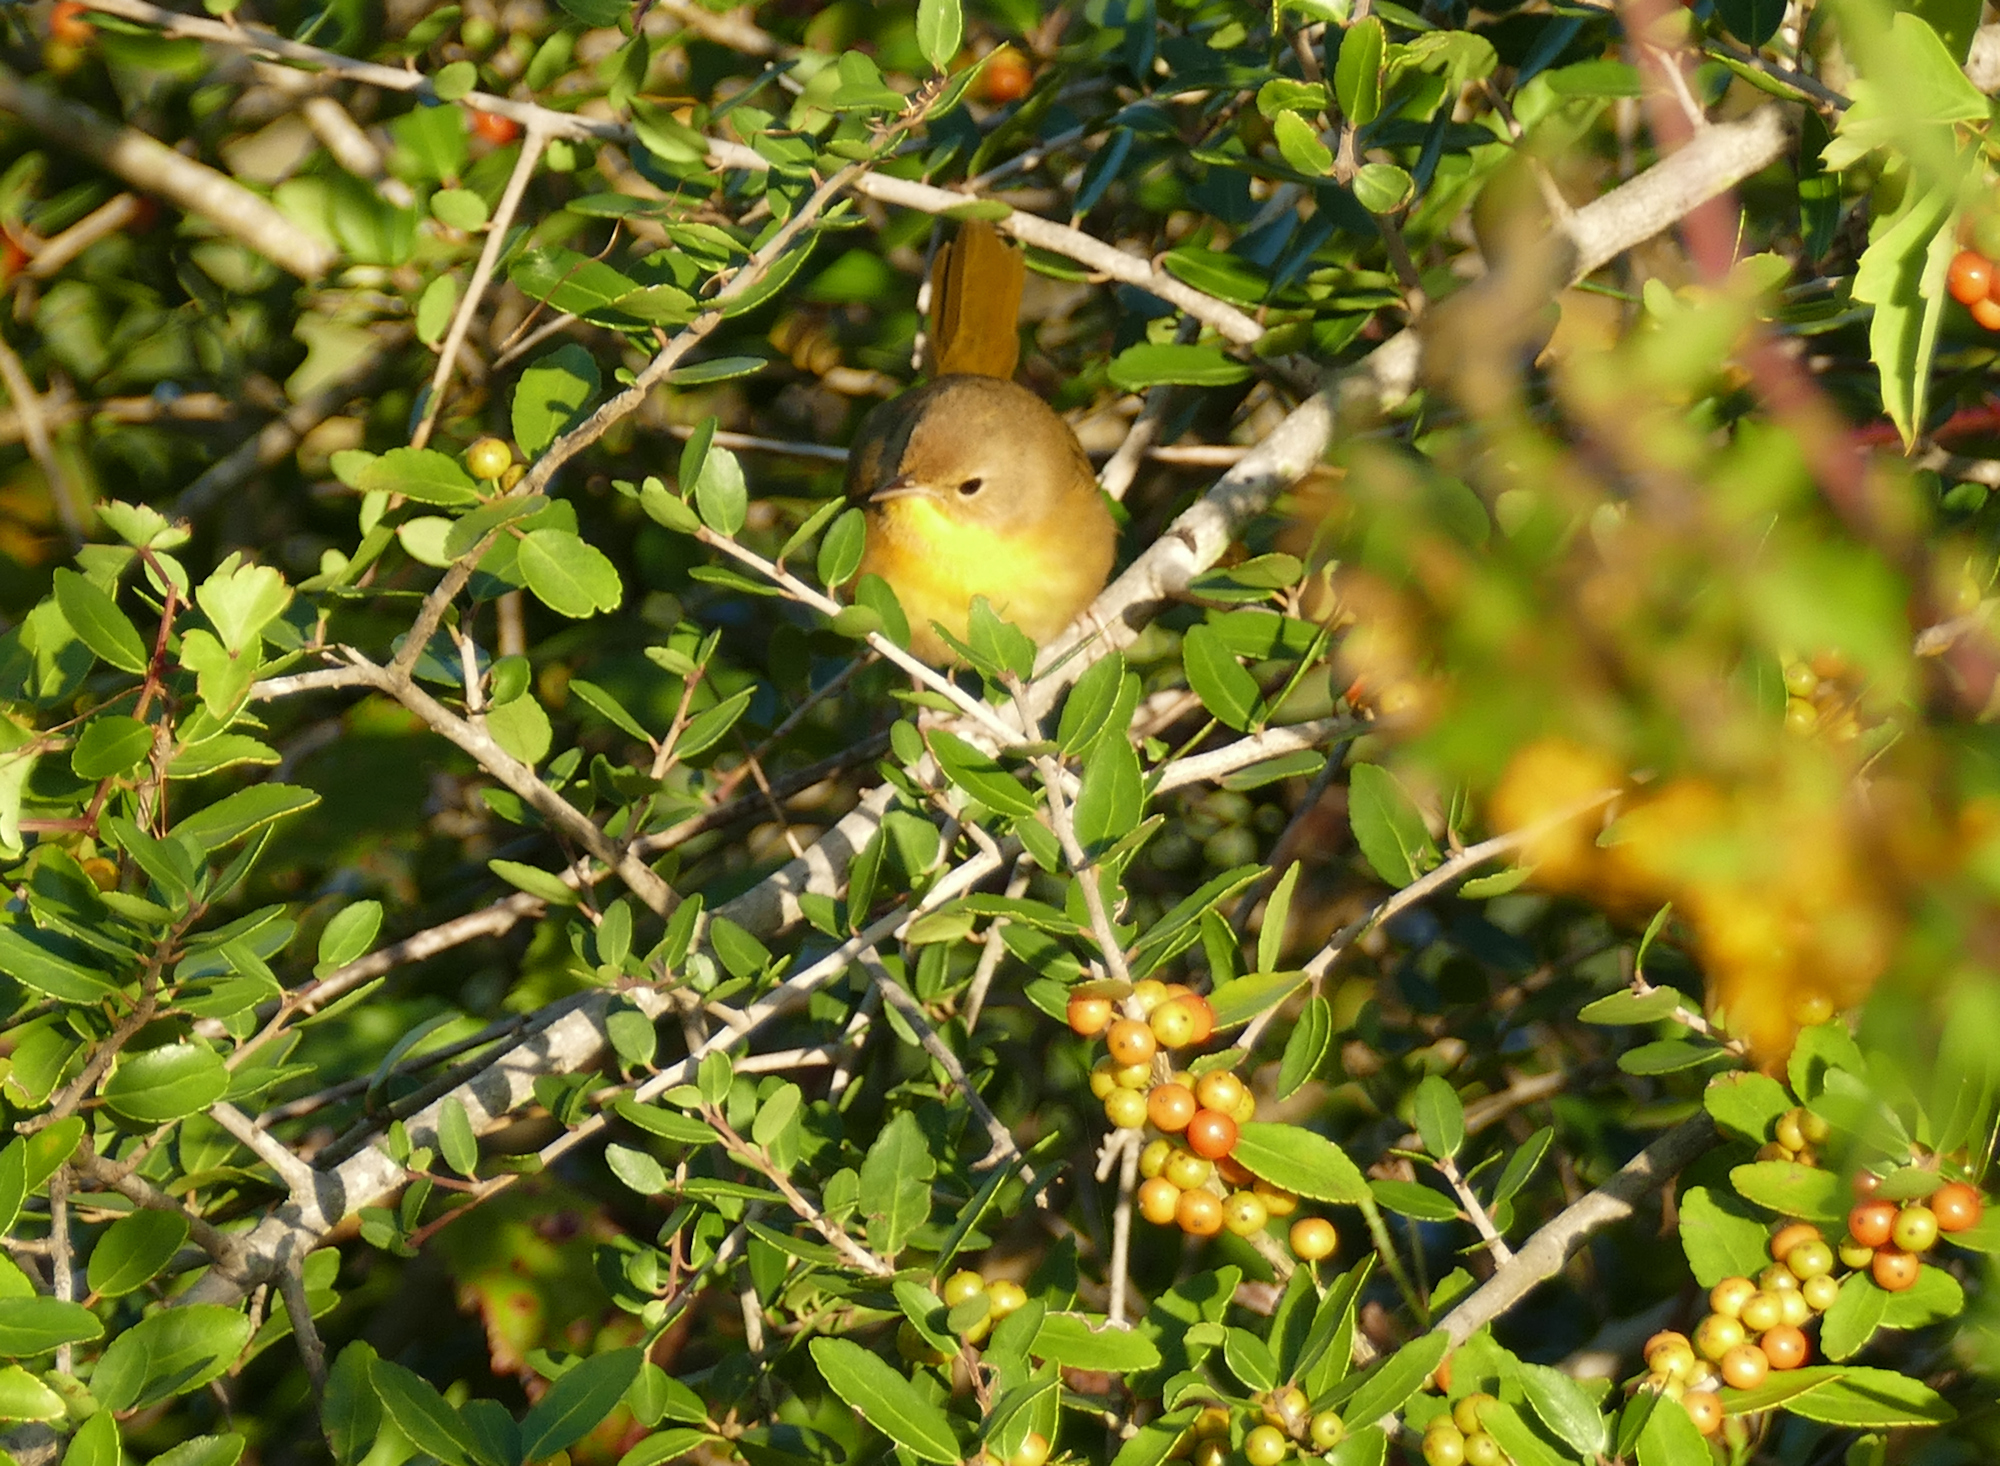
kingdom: Animalia
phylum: Chordata
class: Aves
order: Passeriformes
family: Parulidae
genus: Geothlypis
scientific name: Geothlypis trichas
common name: Common yellowthroat
